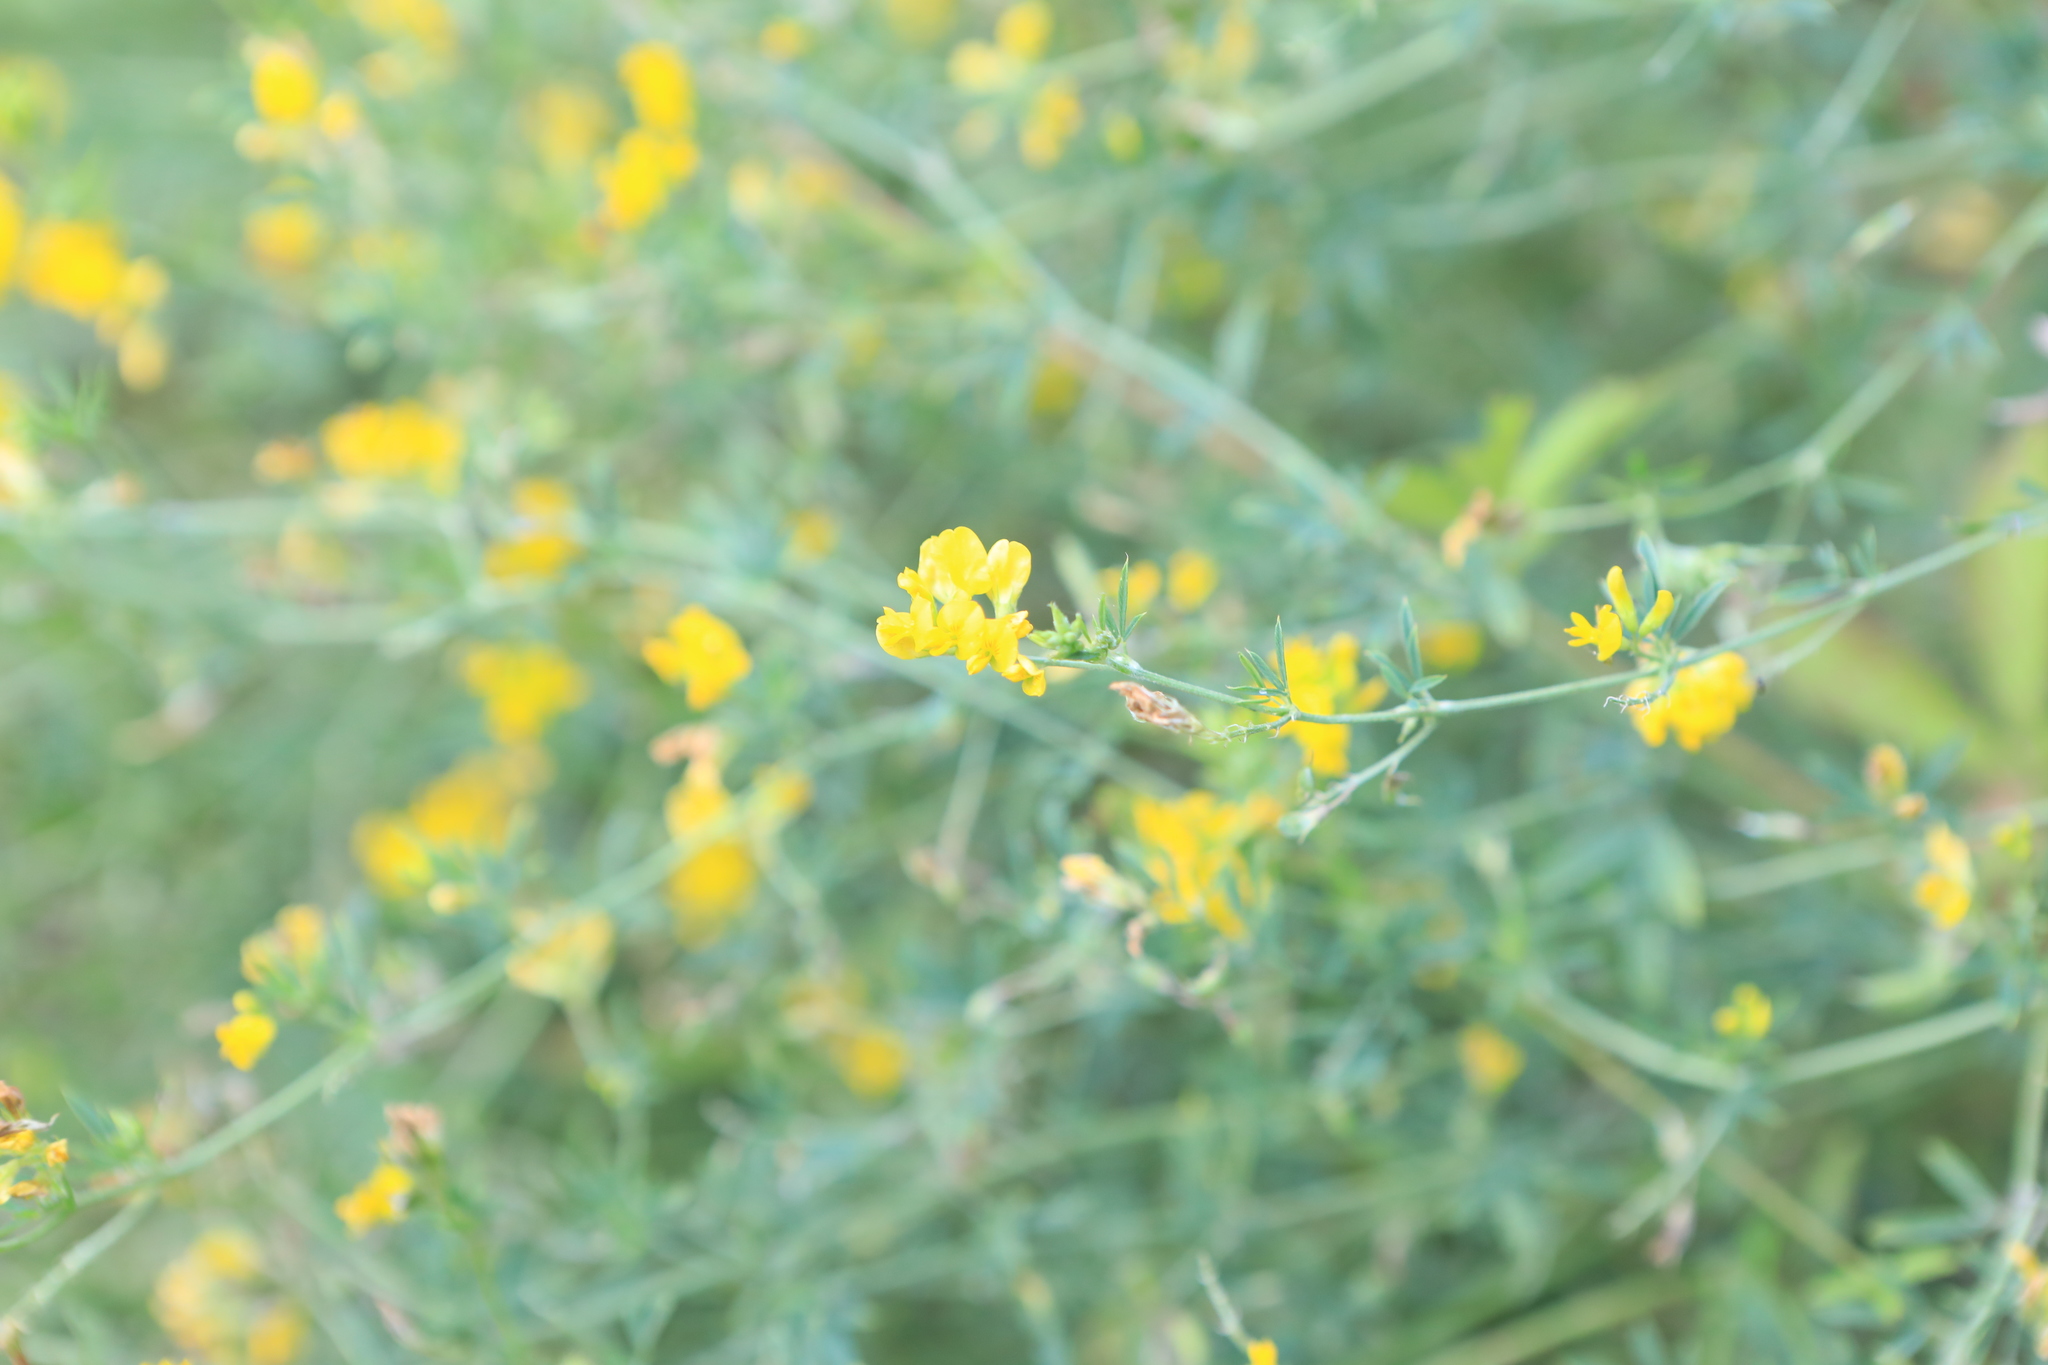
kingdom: Plantae
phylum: Tracheophyta
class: Magnoliopsida
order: Fabales
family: Fabaceae
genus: Medicago
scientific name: Medicago falcata
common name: Sickle medick
